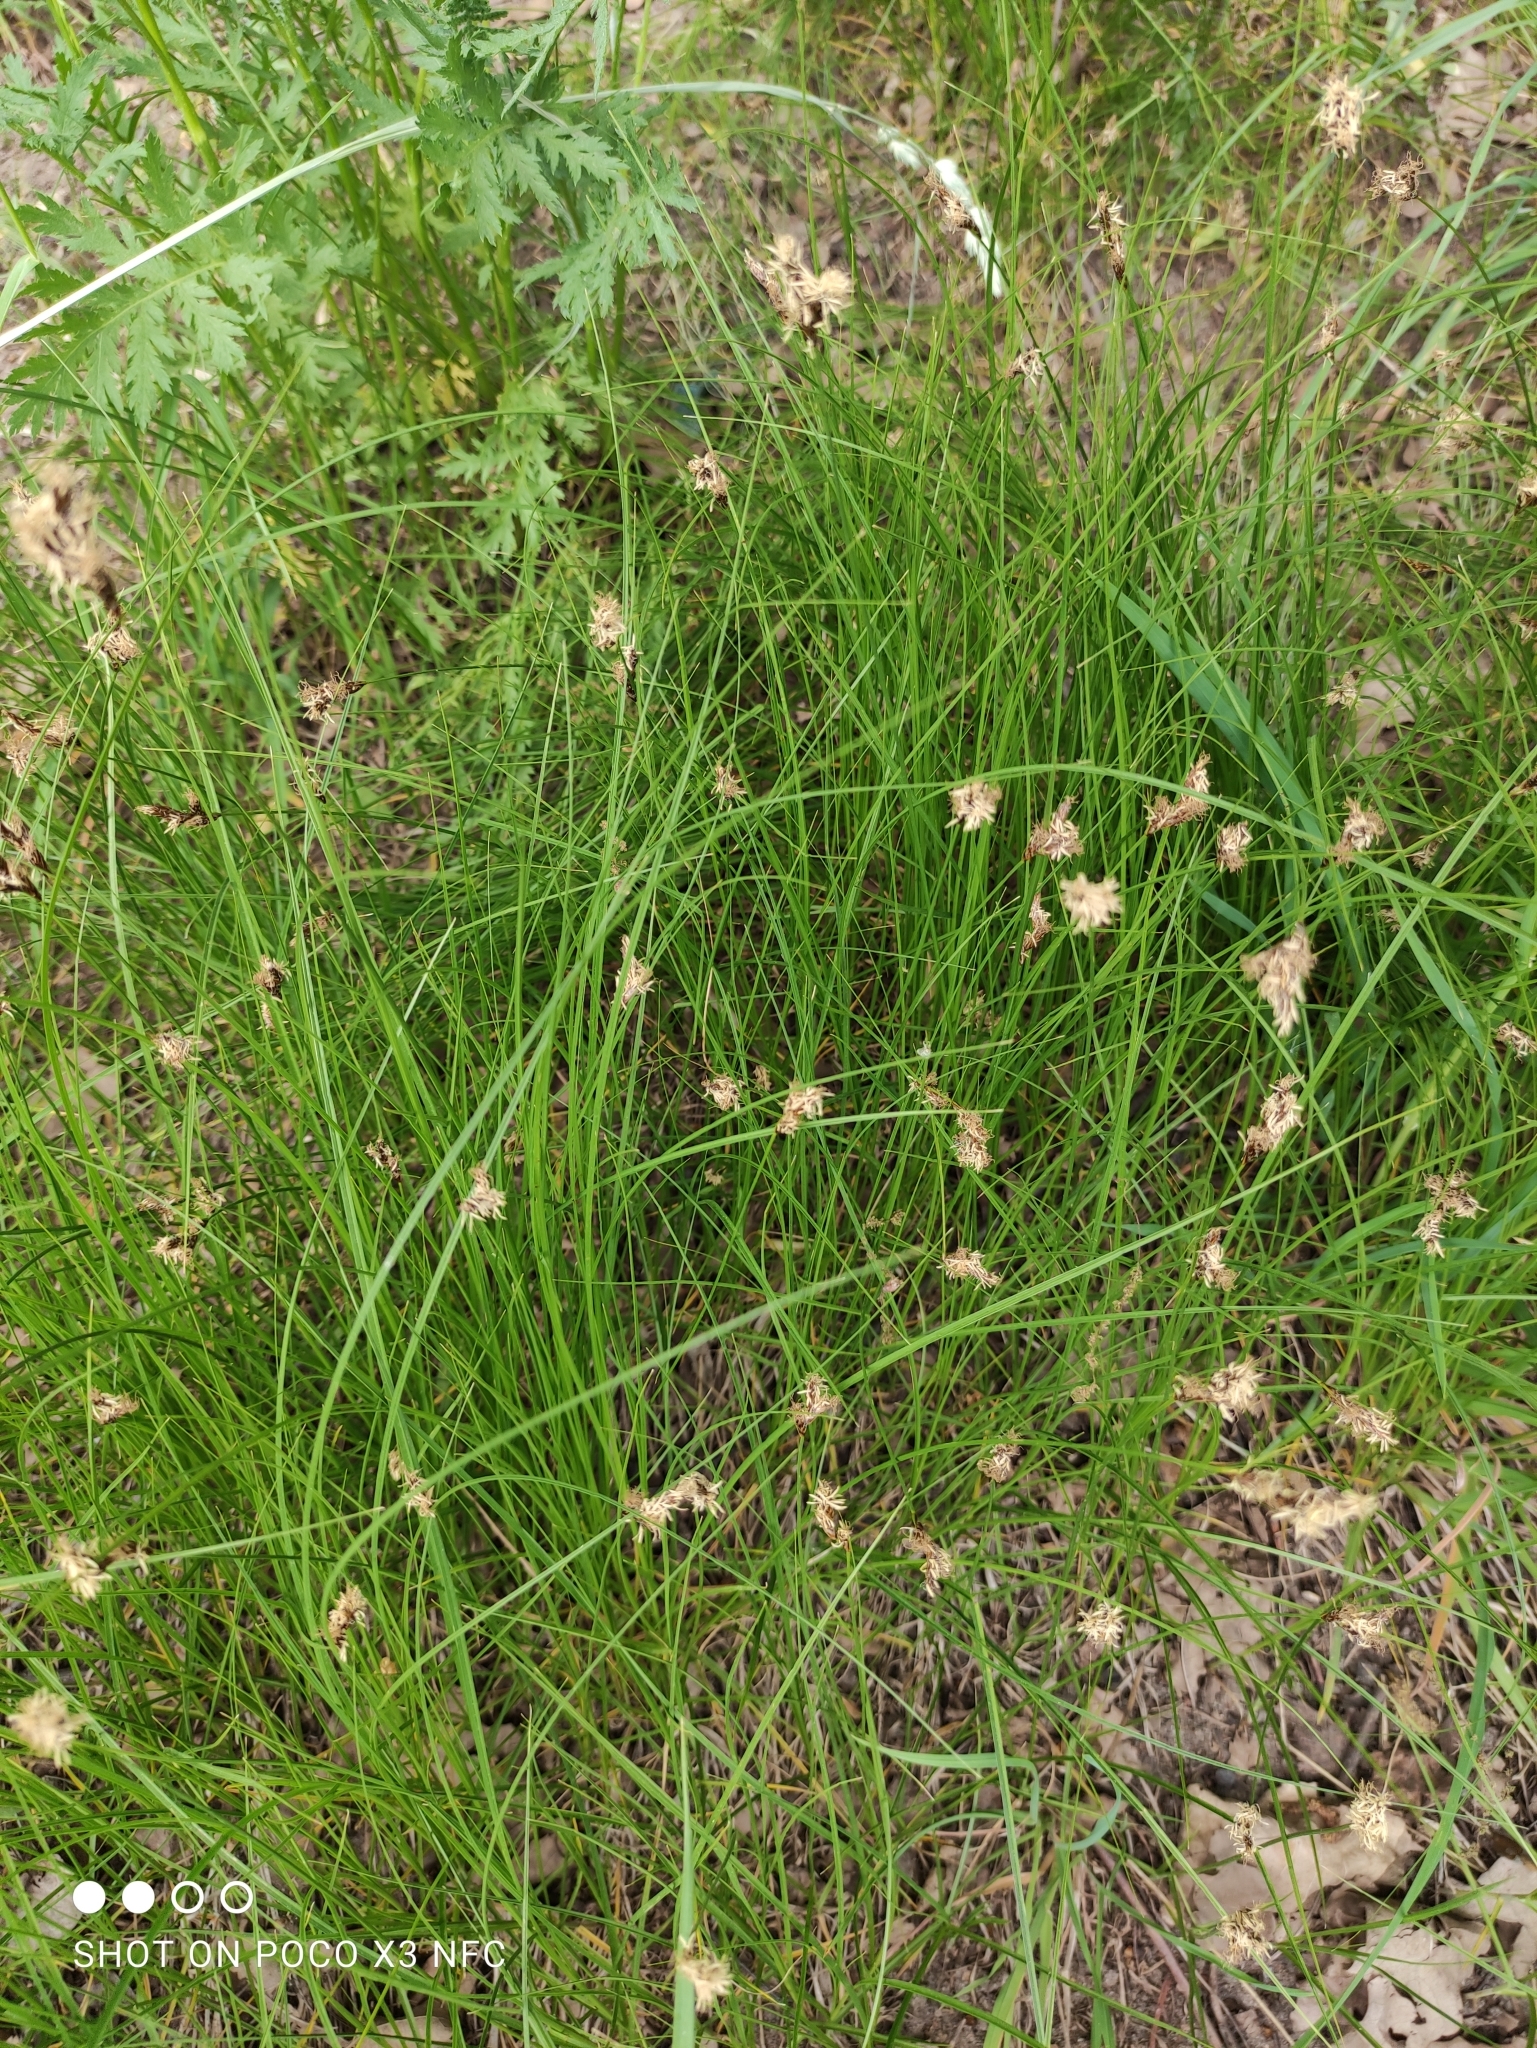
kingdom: Plantae
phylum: Tracheophyta
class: Liliopsida
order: Poales
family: Cyperaceae
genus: Carex
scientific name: Carex praecox
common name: Early sedge
